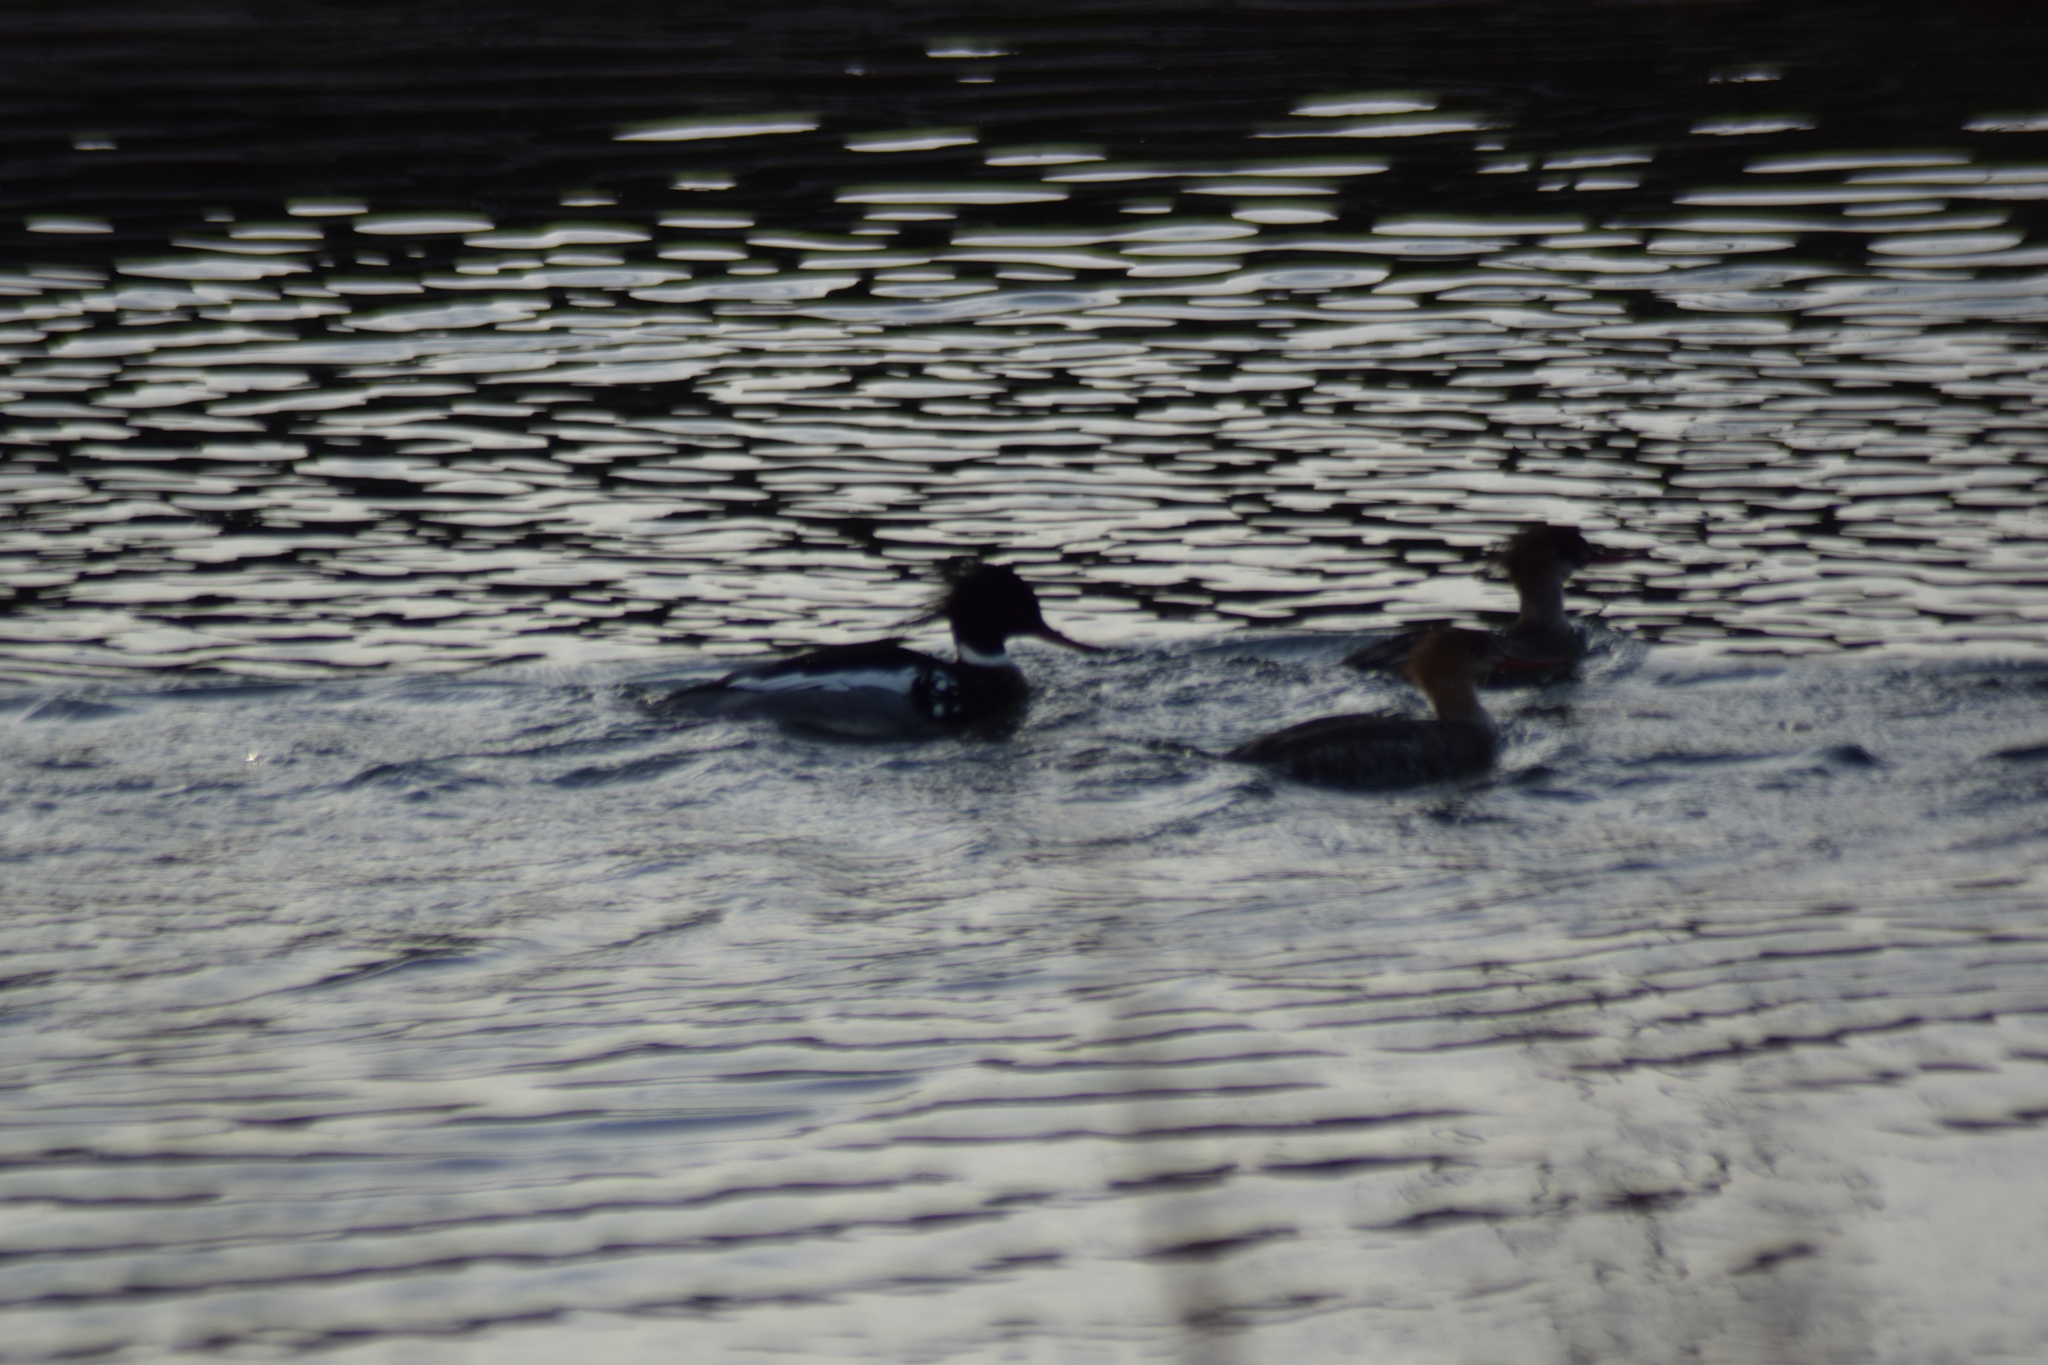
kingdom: Animalia
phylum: Chordata
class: Aves
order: Anseriformes
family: Anatidae
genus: Mergus
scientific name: Mergus serrator
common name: Red-breasted merganser
